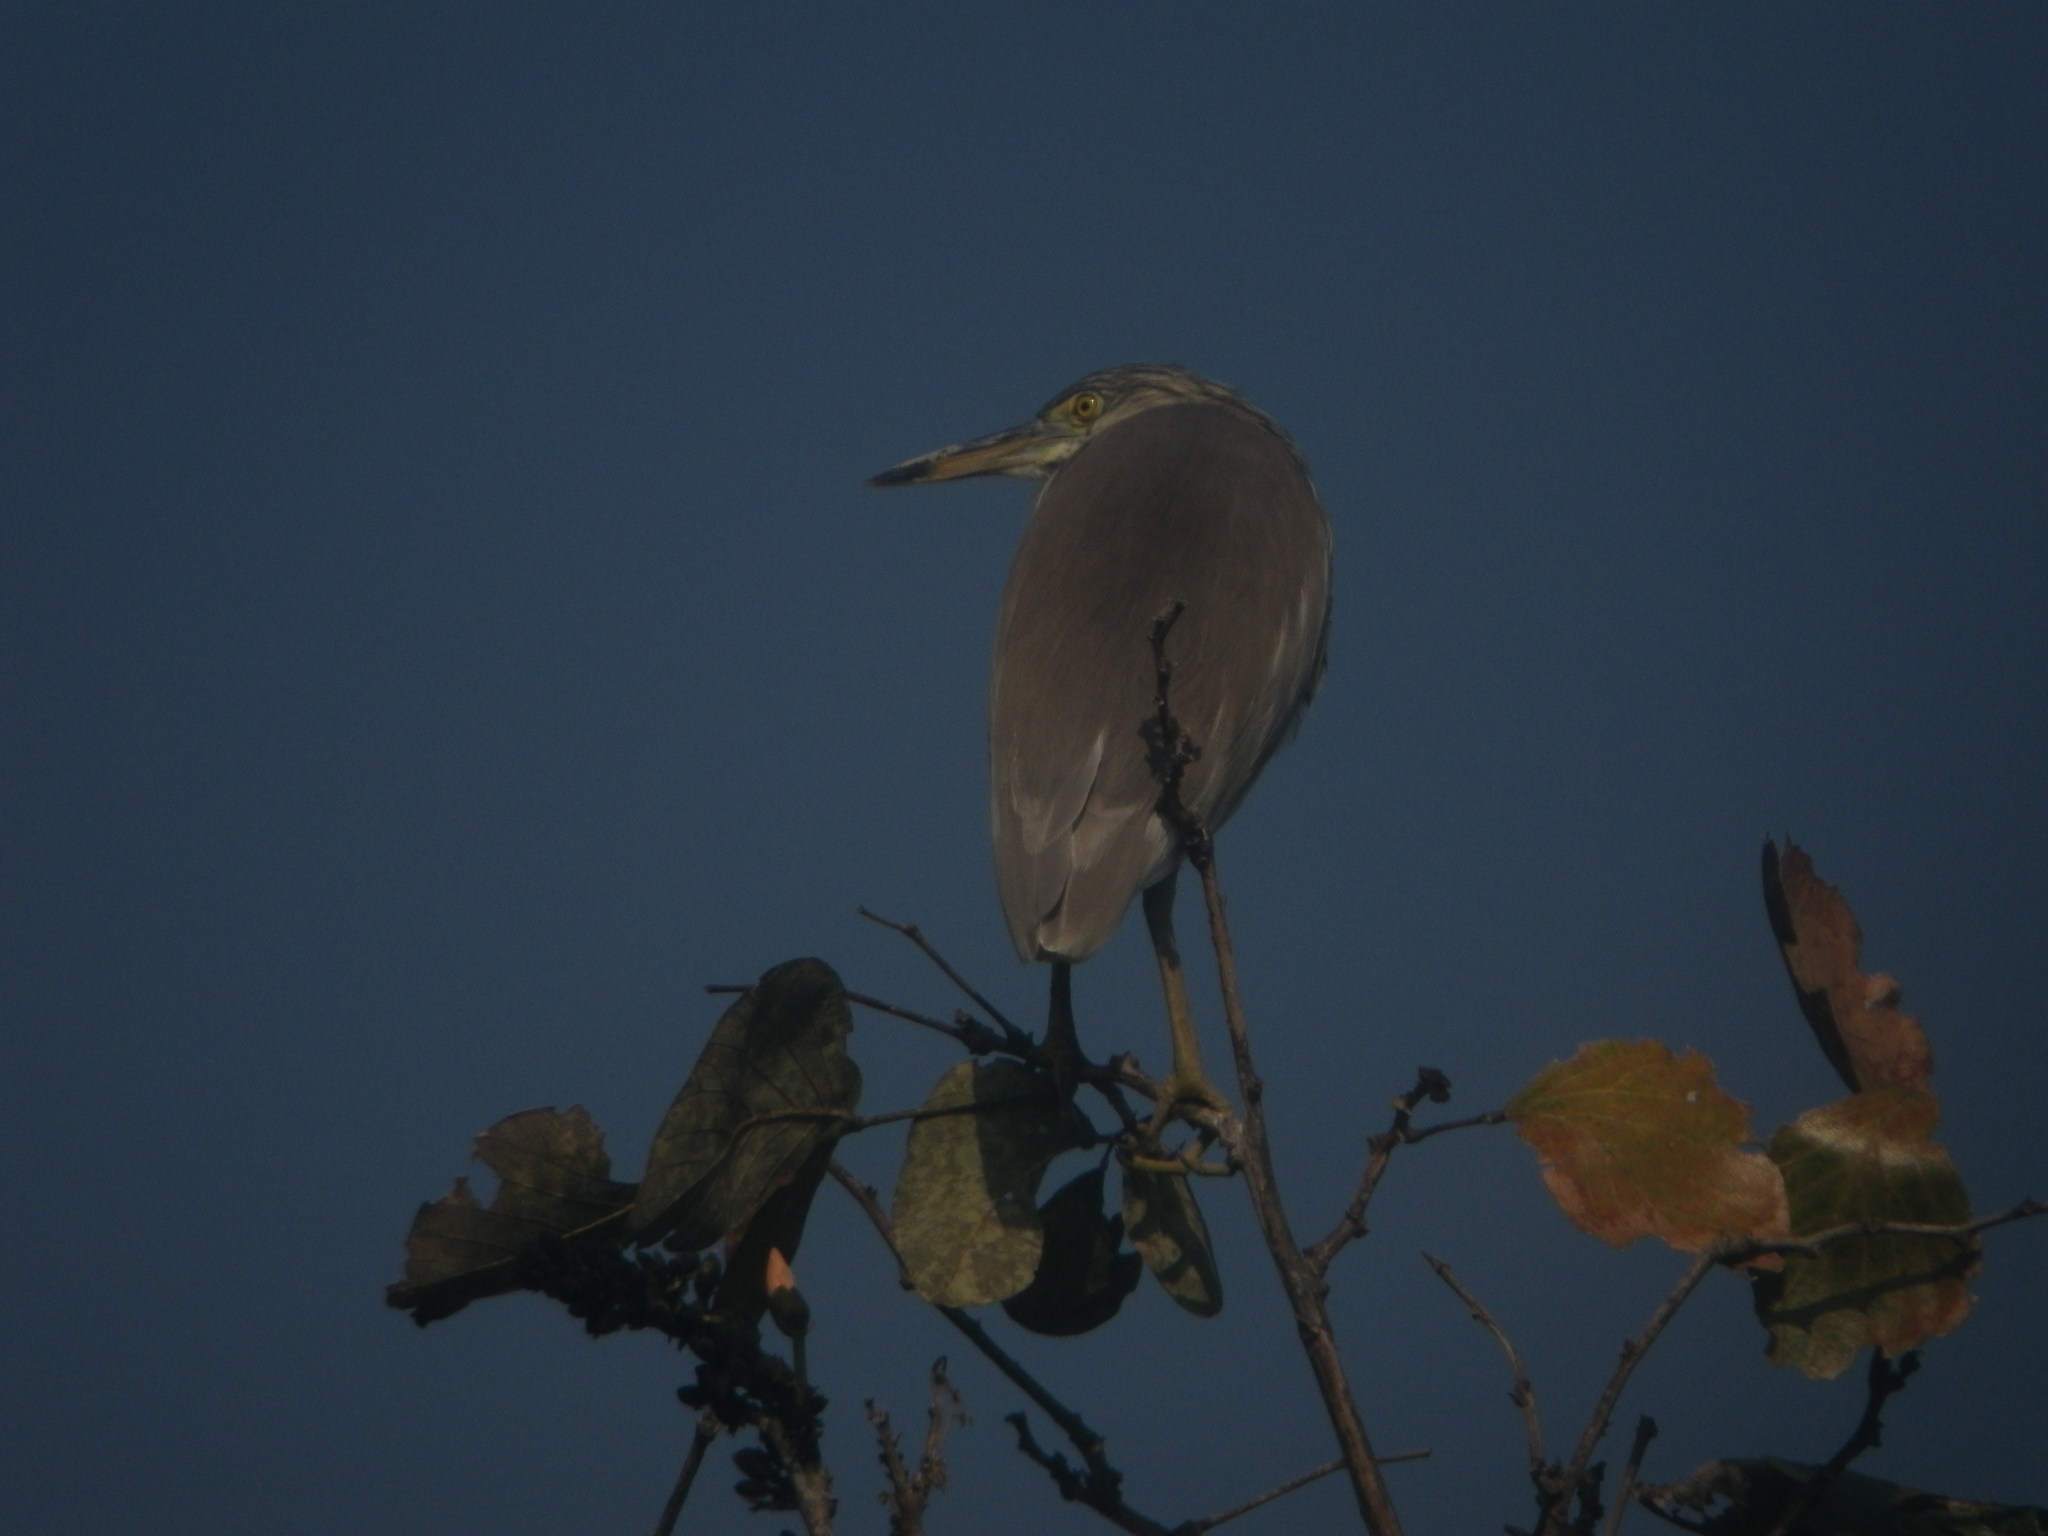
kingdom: Animalia
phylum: Chordata
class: Aves
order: Pelecaniformes
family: Ardeidae
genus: Ardeola
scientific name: Ardeola
